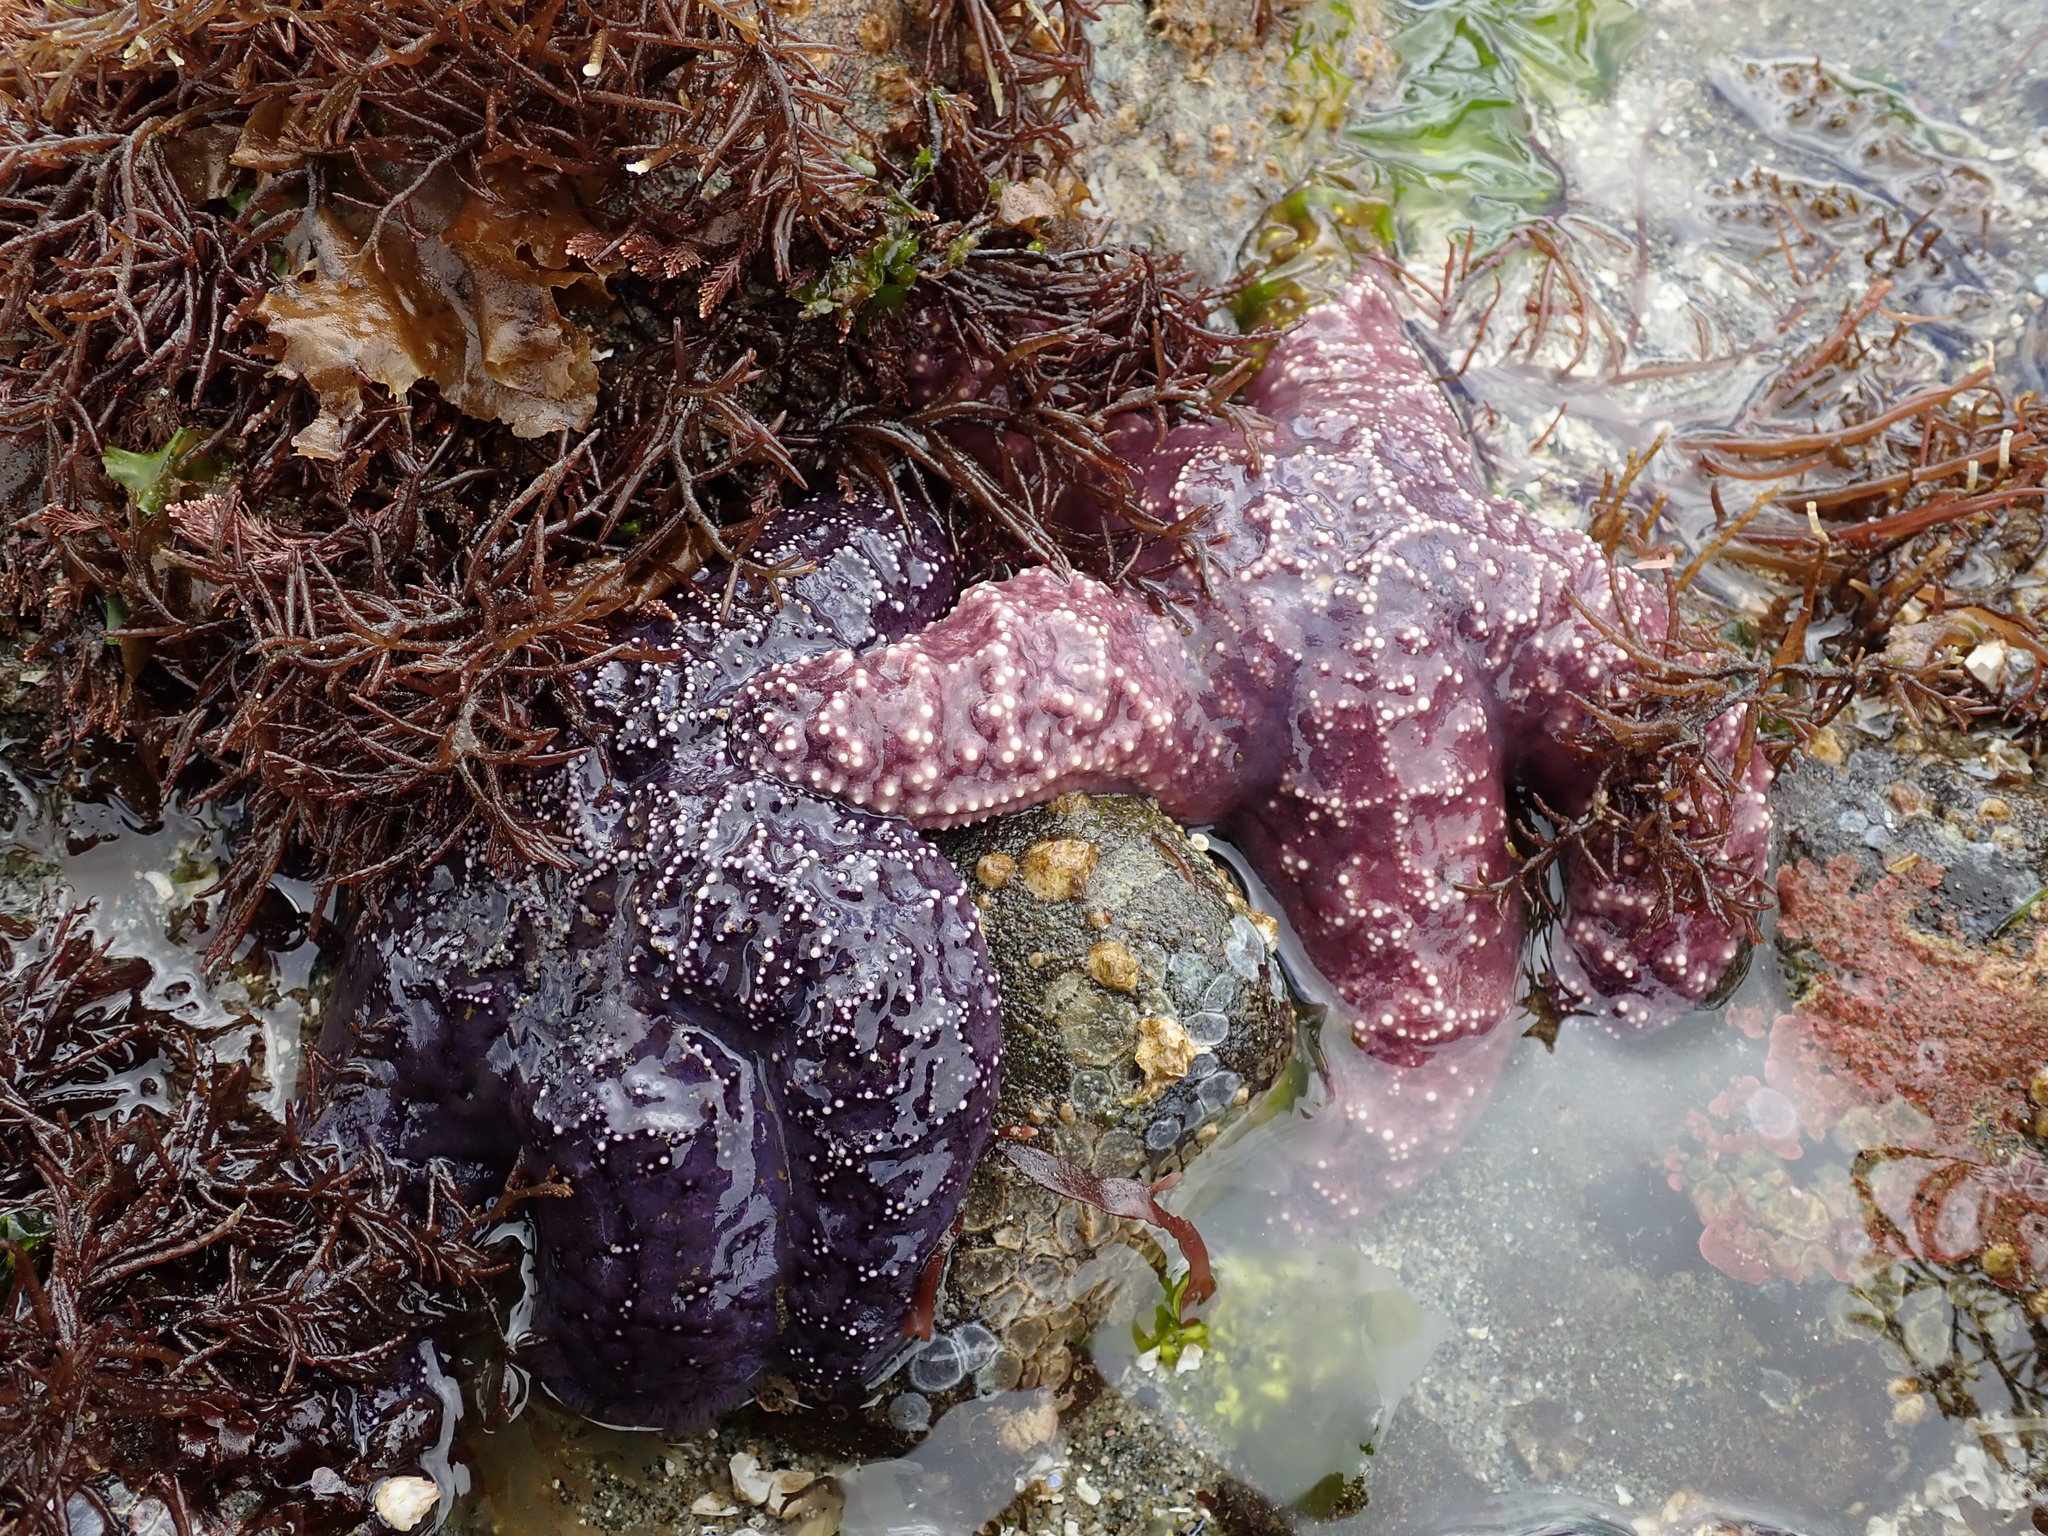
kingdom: Animalia
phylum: Echinodermata
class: Asteroidea
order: Forcipulatida
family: Asteriidae
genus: Pisaster
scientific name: Pisaster ochraceus
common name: Ochre stars
